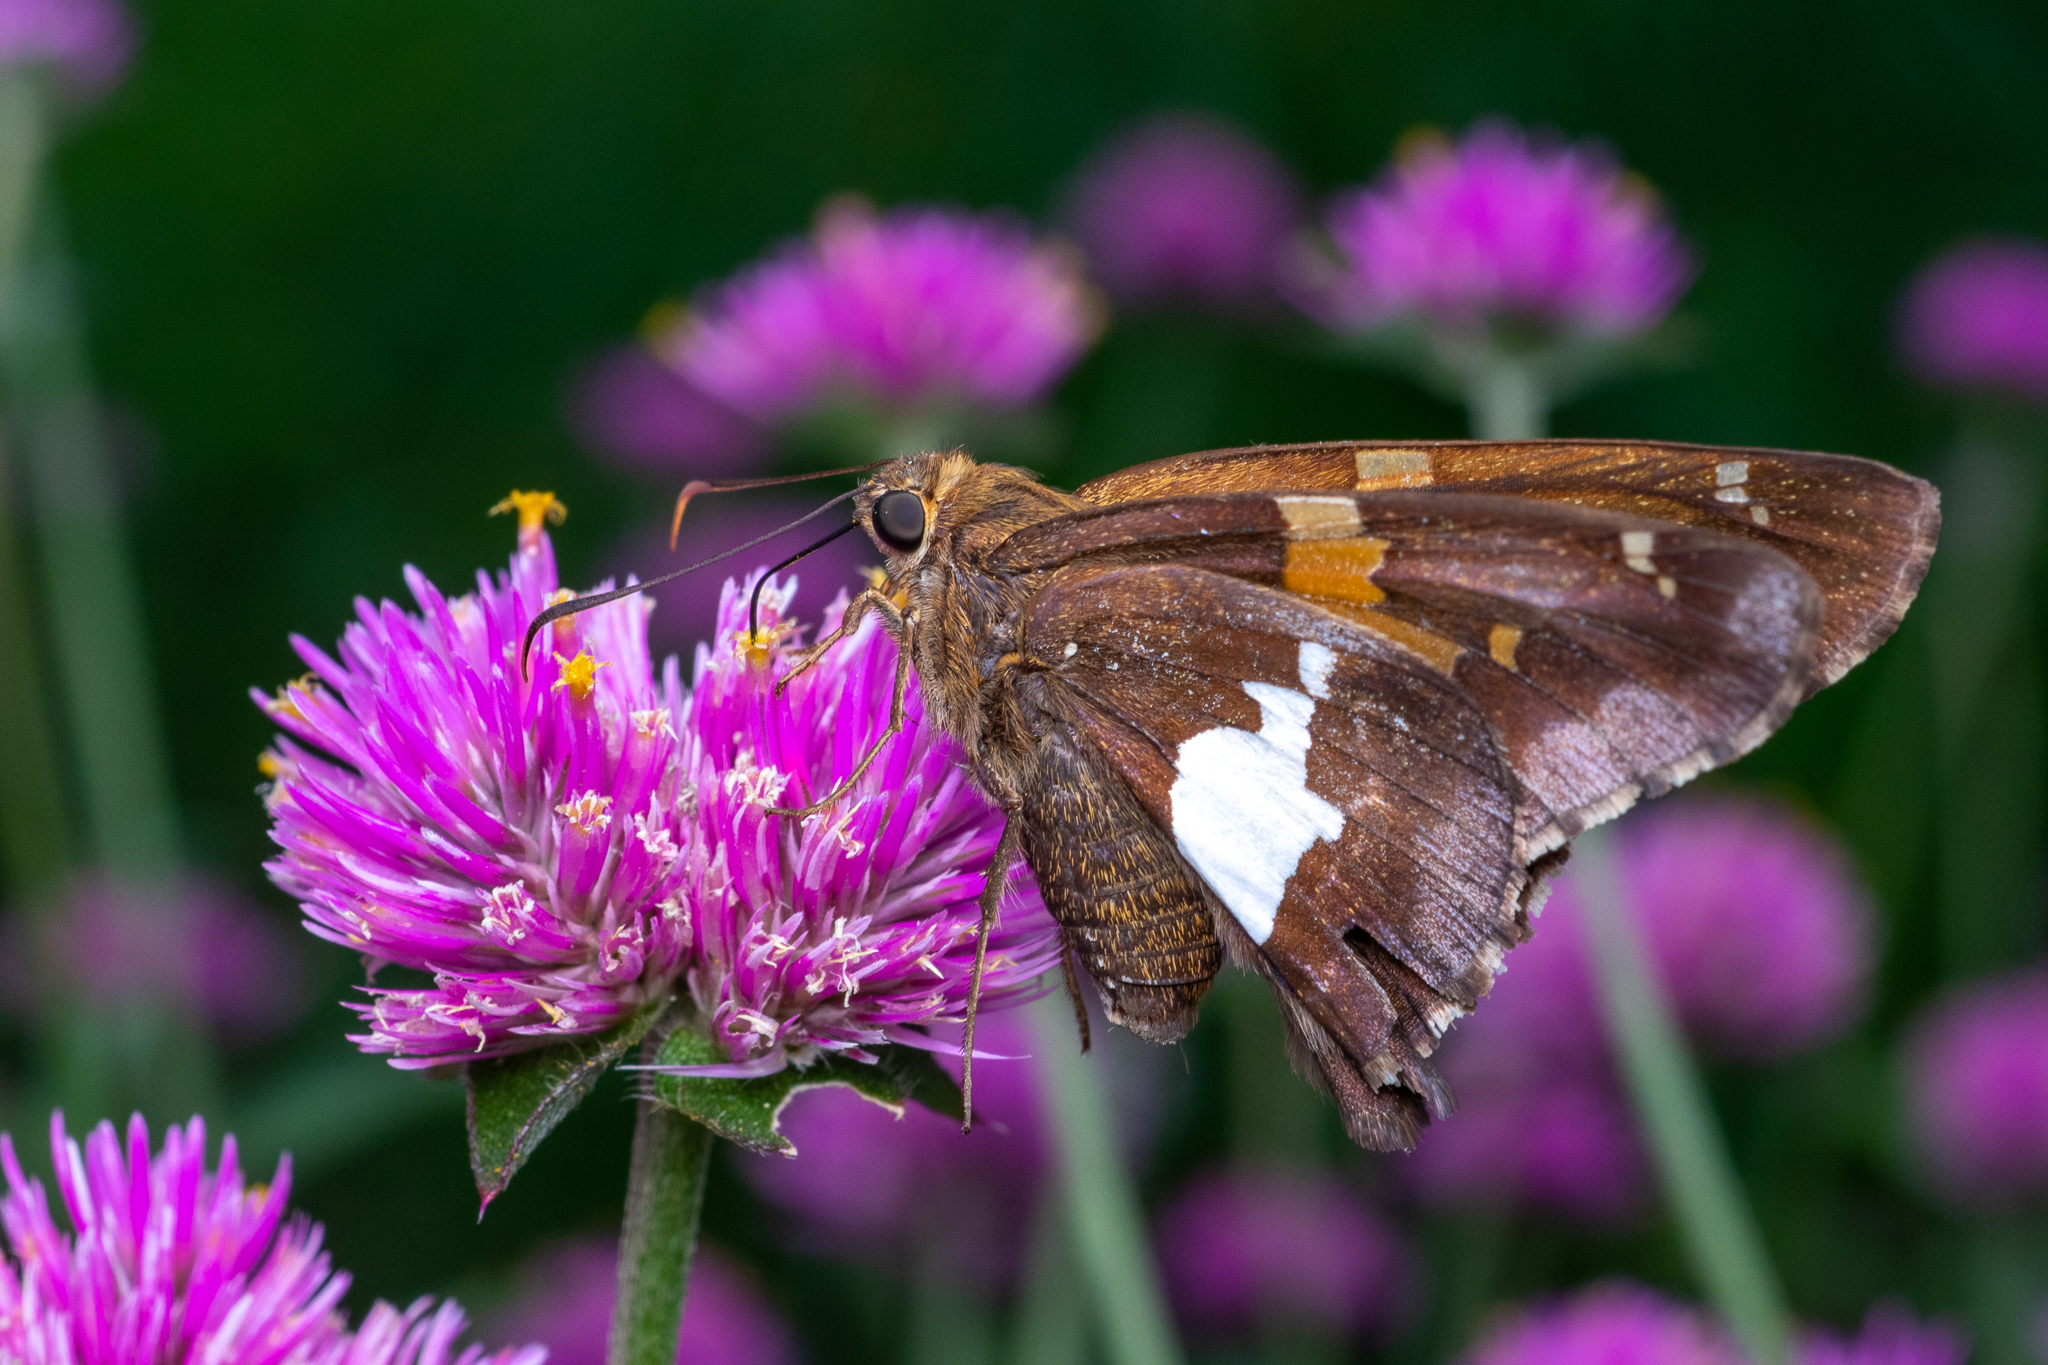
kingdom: Animalia
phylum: Arthropoda
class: Insecta
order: Lepidoptera
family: Hesperiidae
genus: Epargyreus
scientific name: Epargyreus clarus
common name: Silver-spotted skipper
